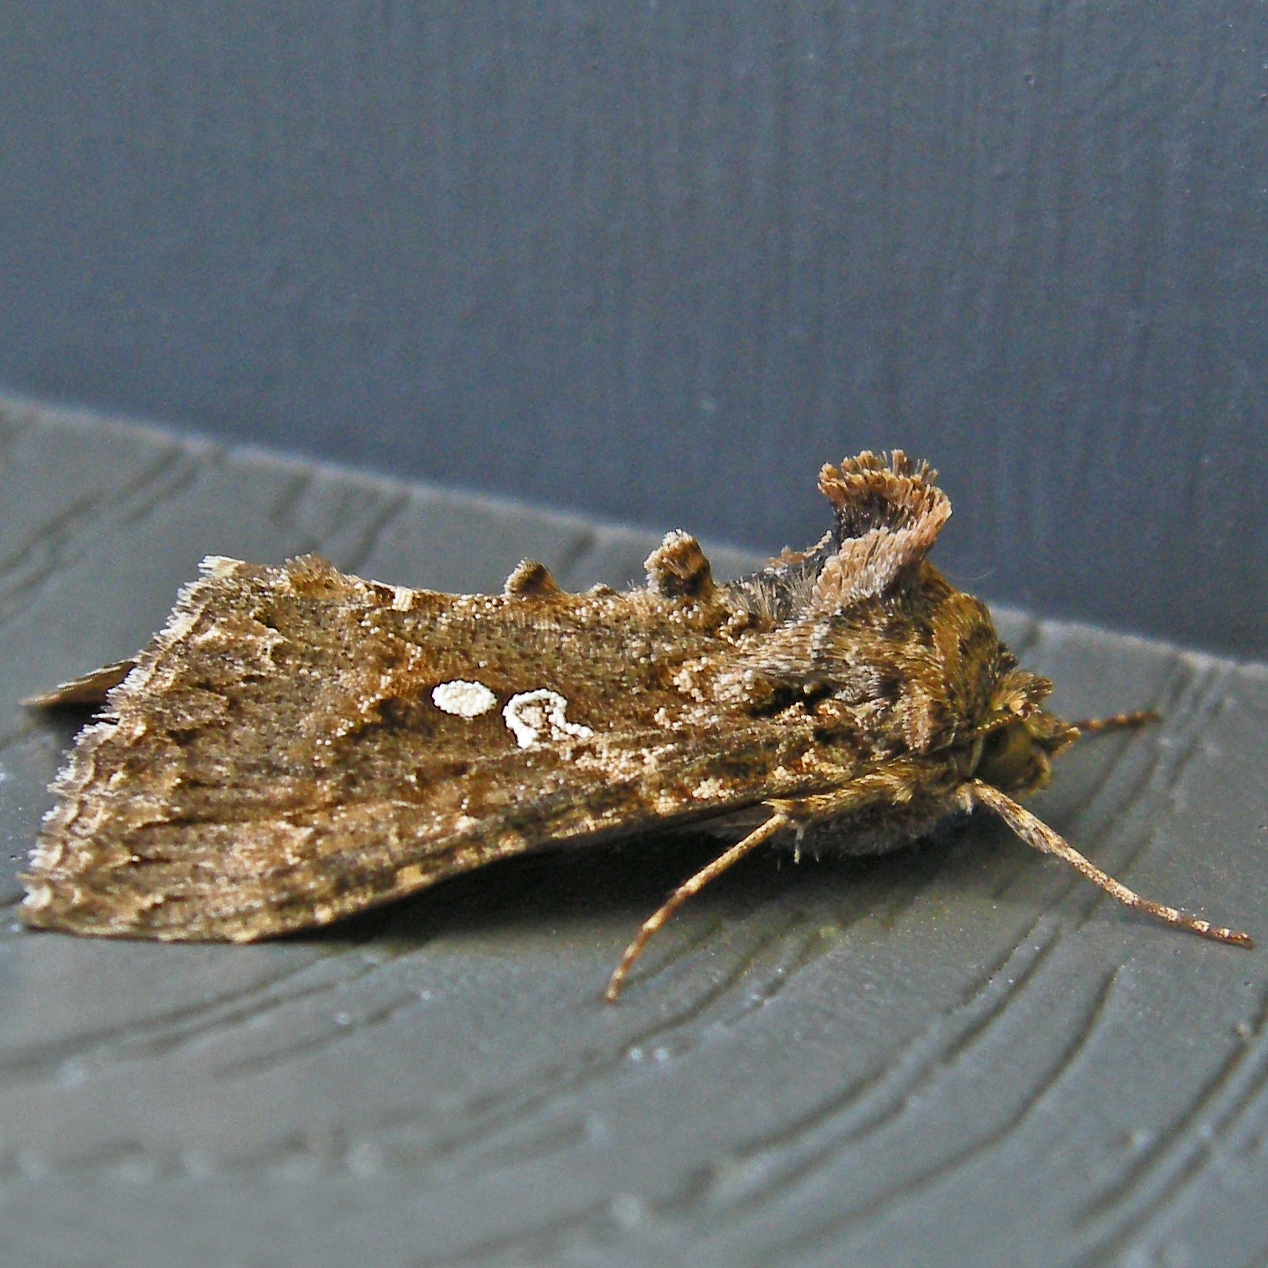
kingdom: Animalia
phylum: Arthropoda
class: Insecta
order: Lepidoptera
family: Noctuidae
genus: Trichoplusia
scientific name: Trichoplusia ni
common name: Ni moth
